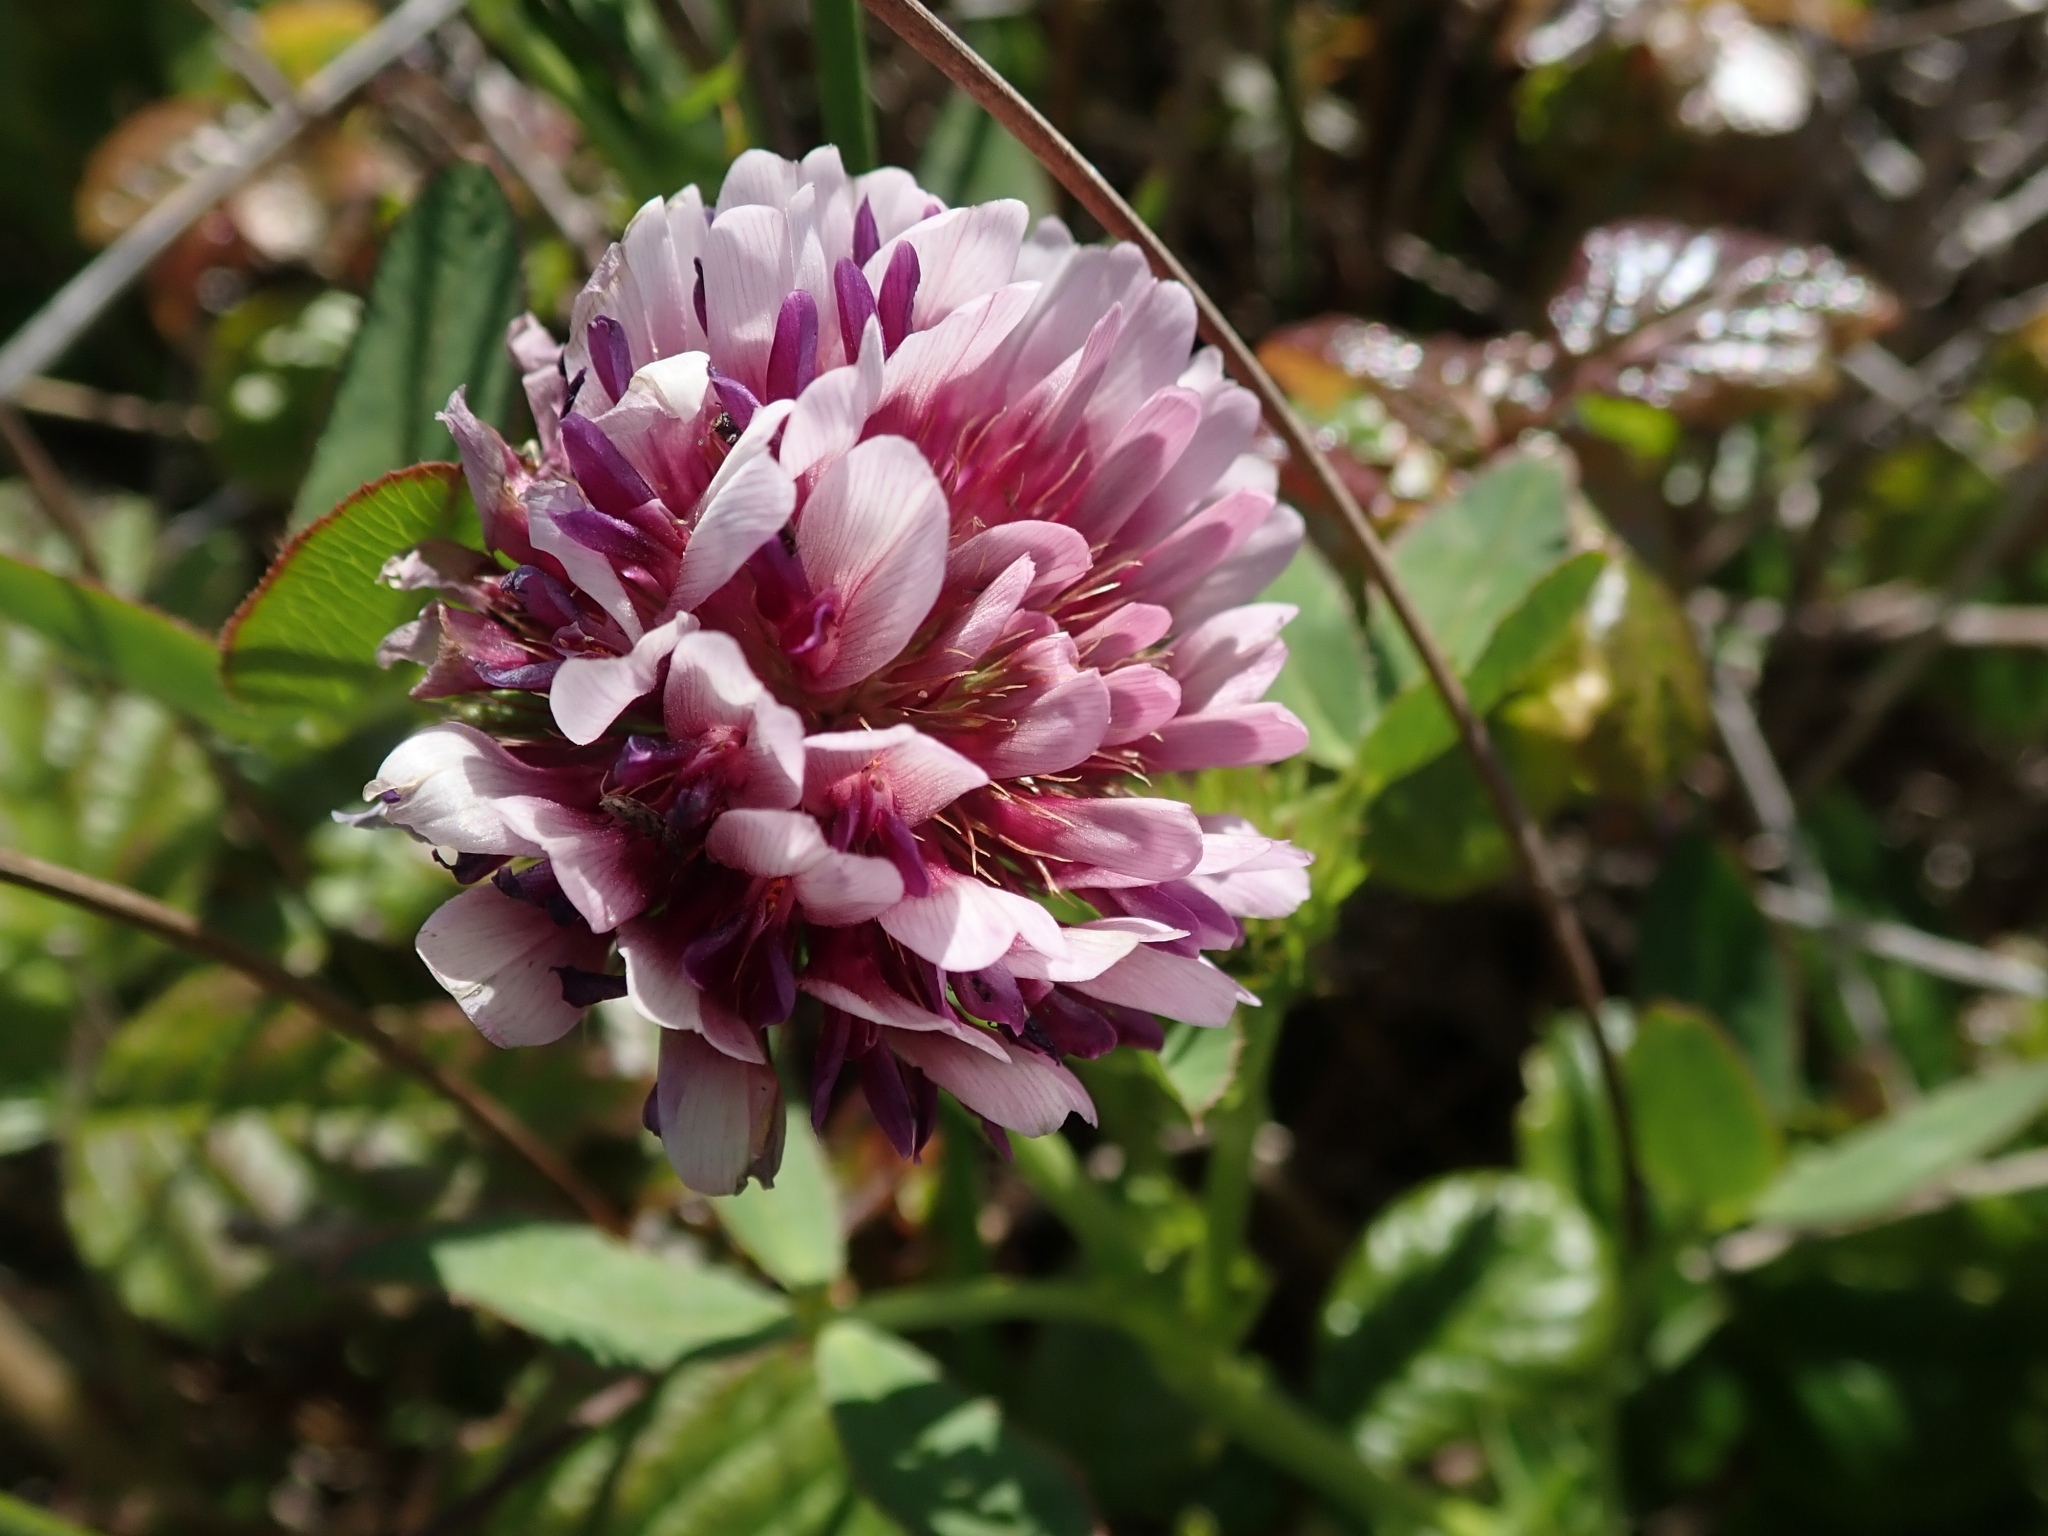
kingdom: Plantae
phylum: Tracheophyta
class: Magnoliopsida
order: Fabales
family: Fabaceae
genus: Trifolium
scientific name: Trifolium wormskioldii
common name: Springbank clover
